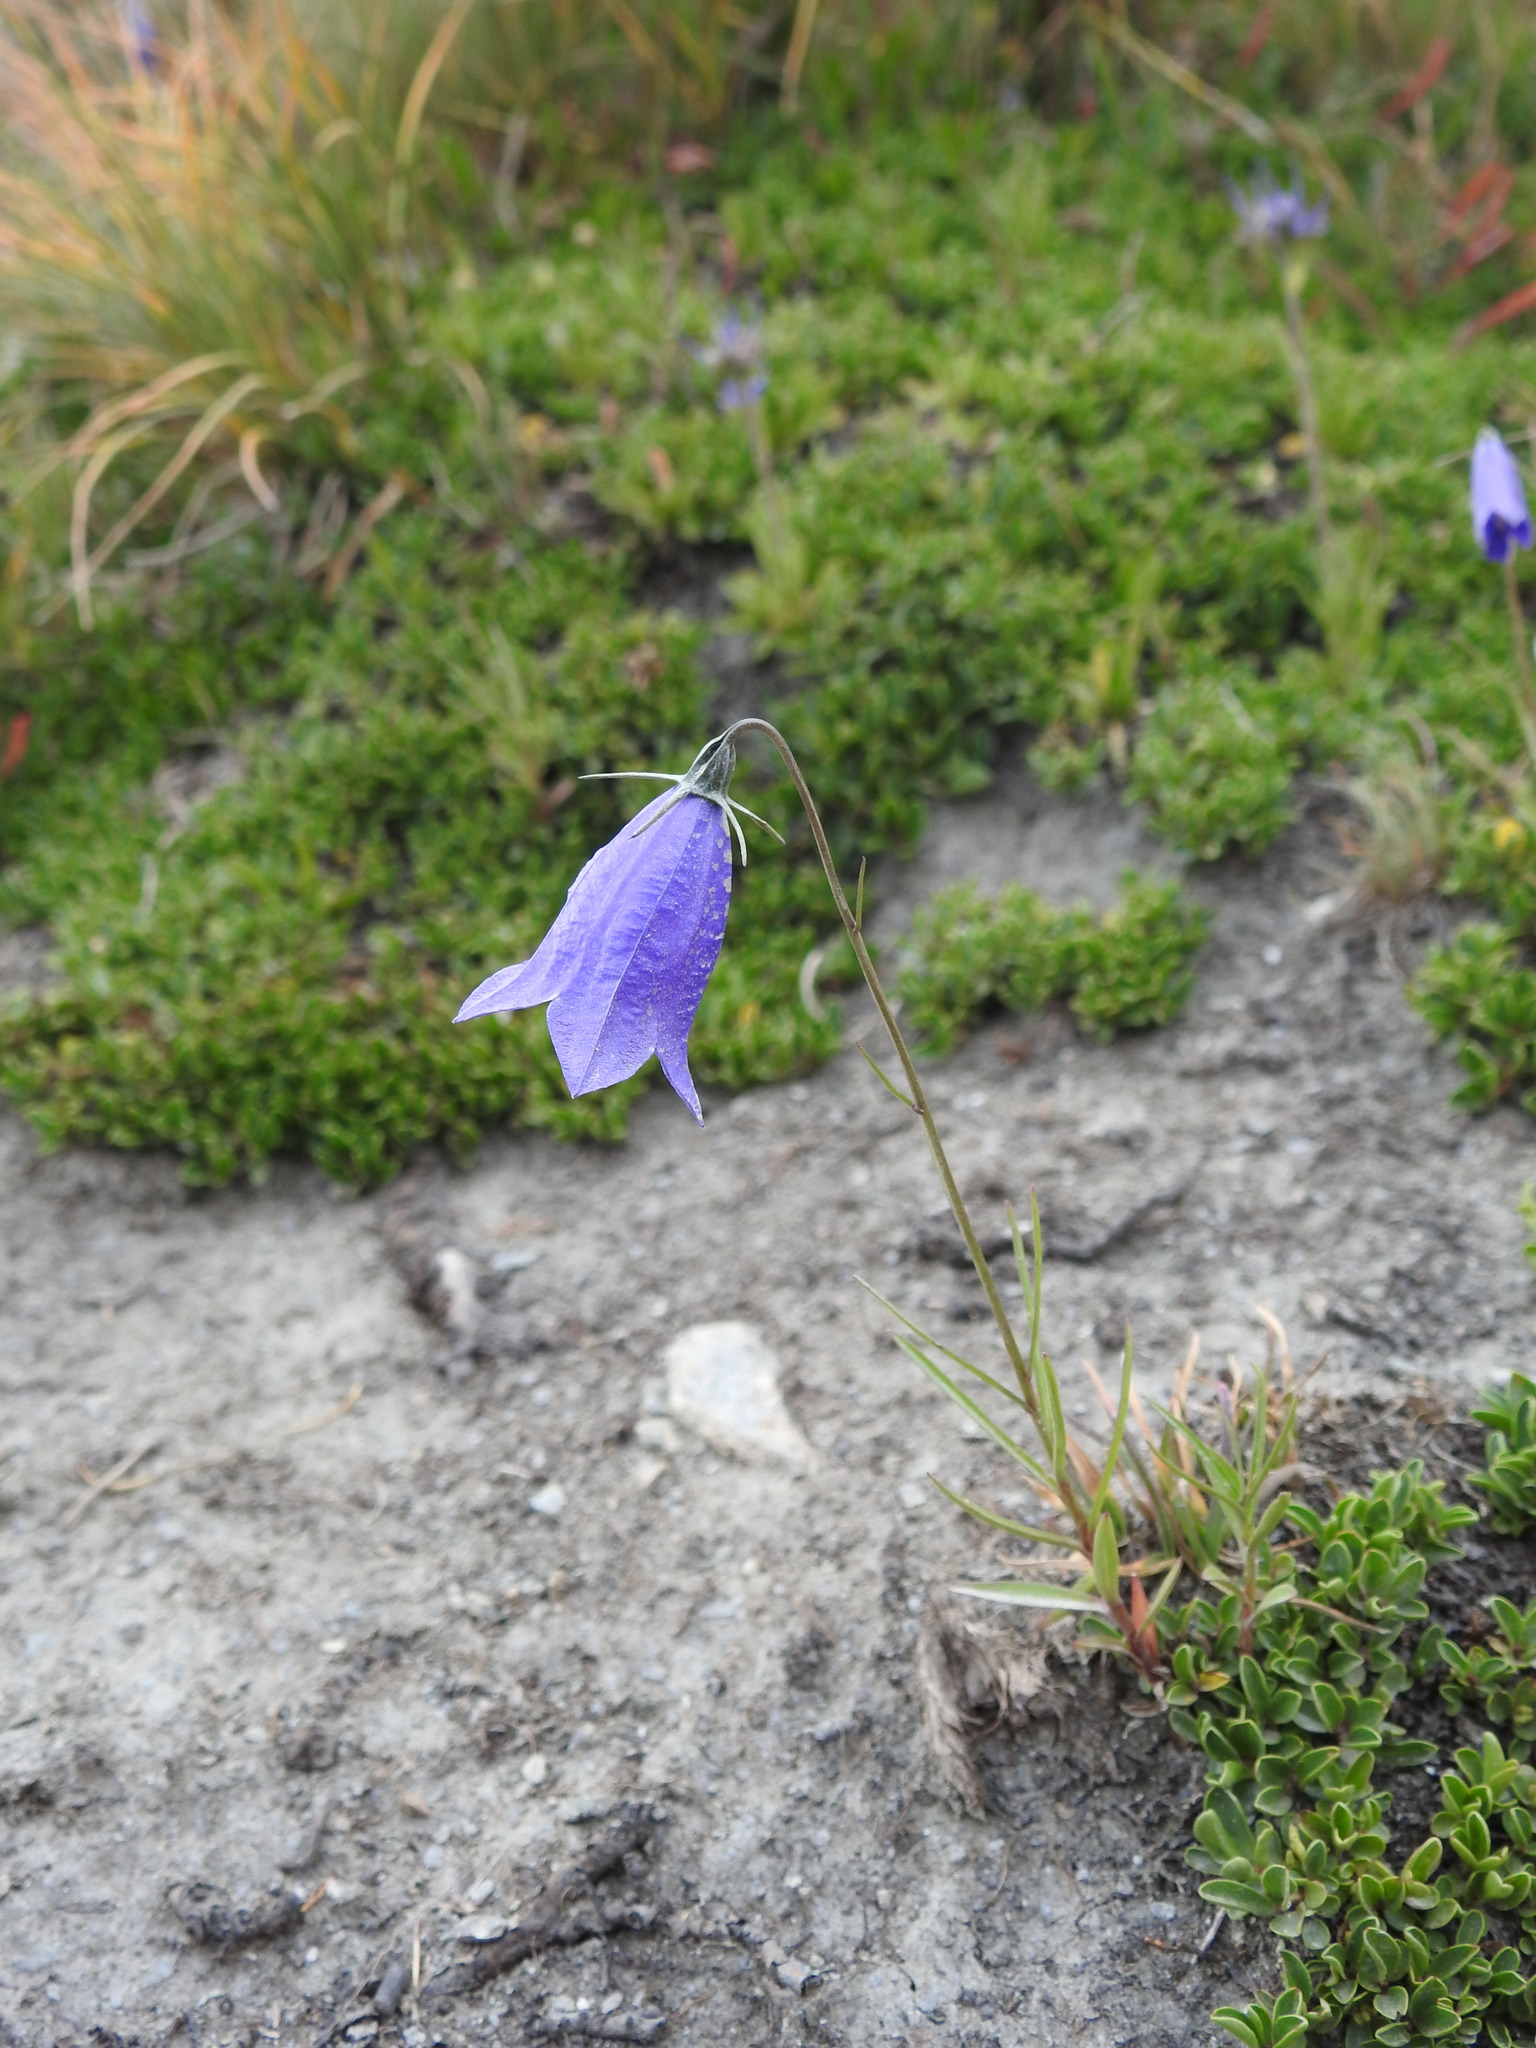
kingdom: Plantae
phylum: Tracheophyta
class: Magnoliopsida
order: Asterales
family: Campanulaceae
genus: Campanula
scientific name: Campanula scheuchzeri
